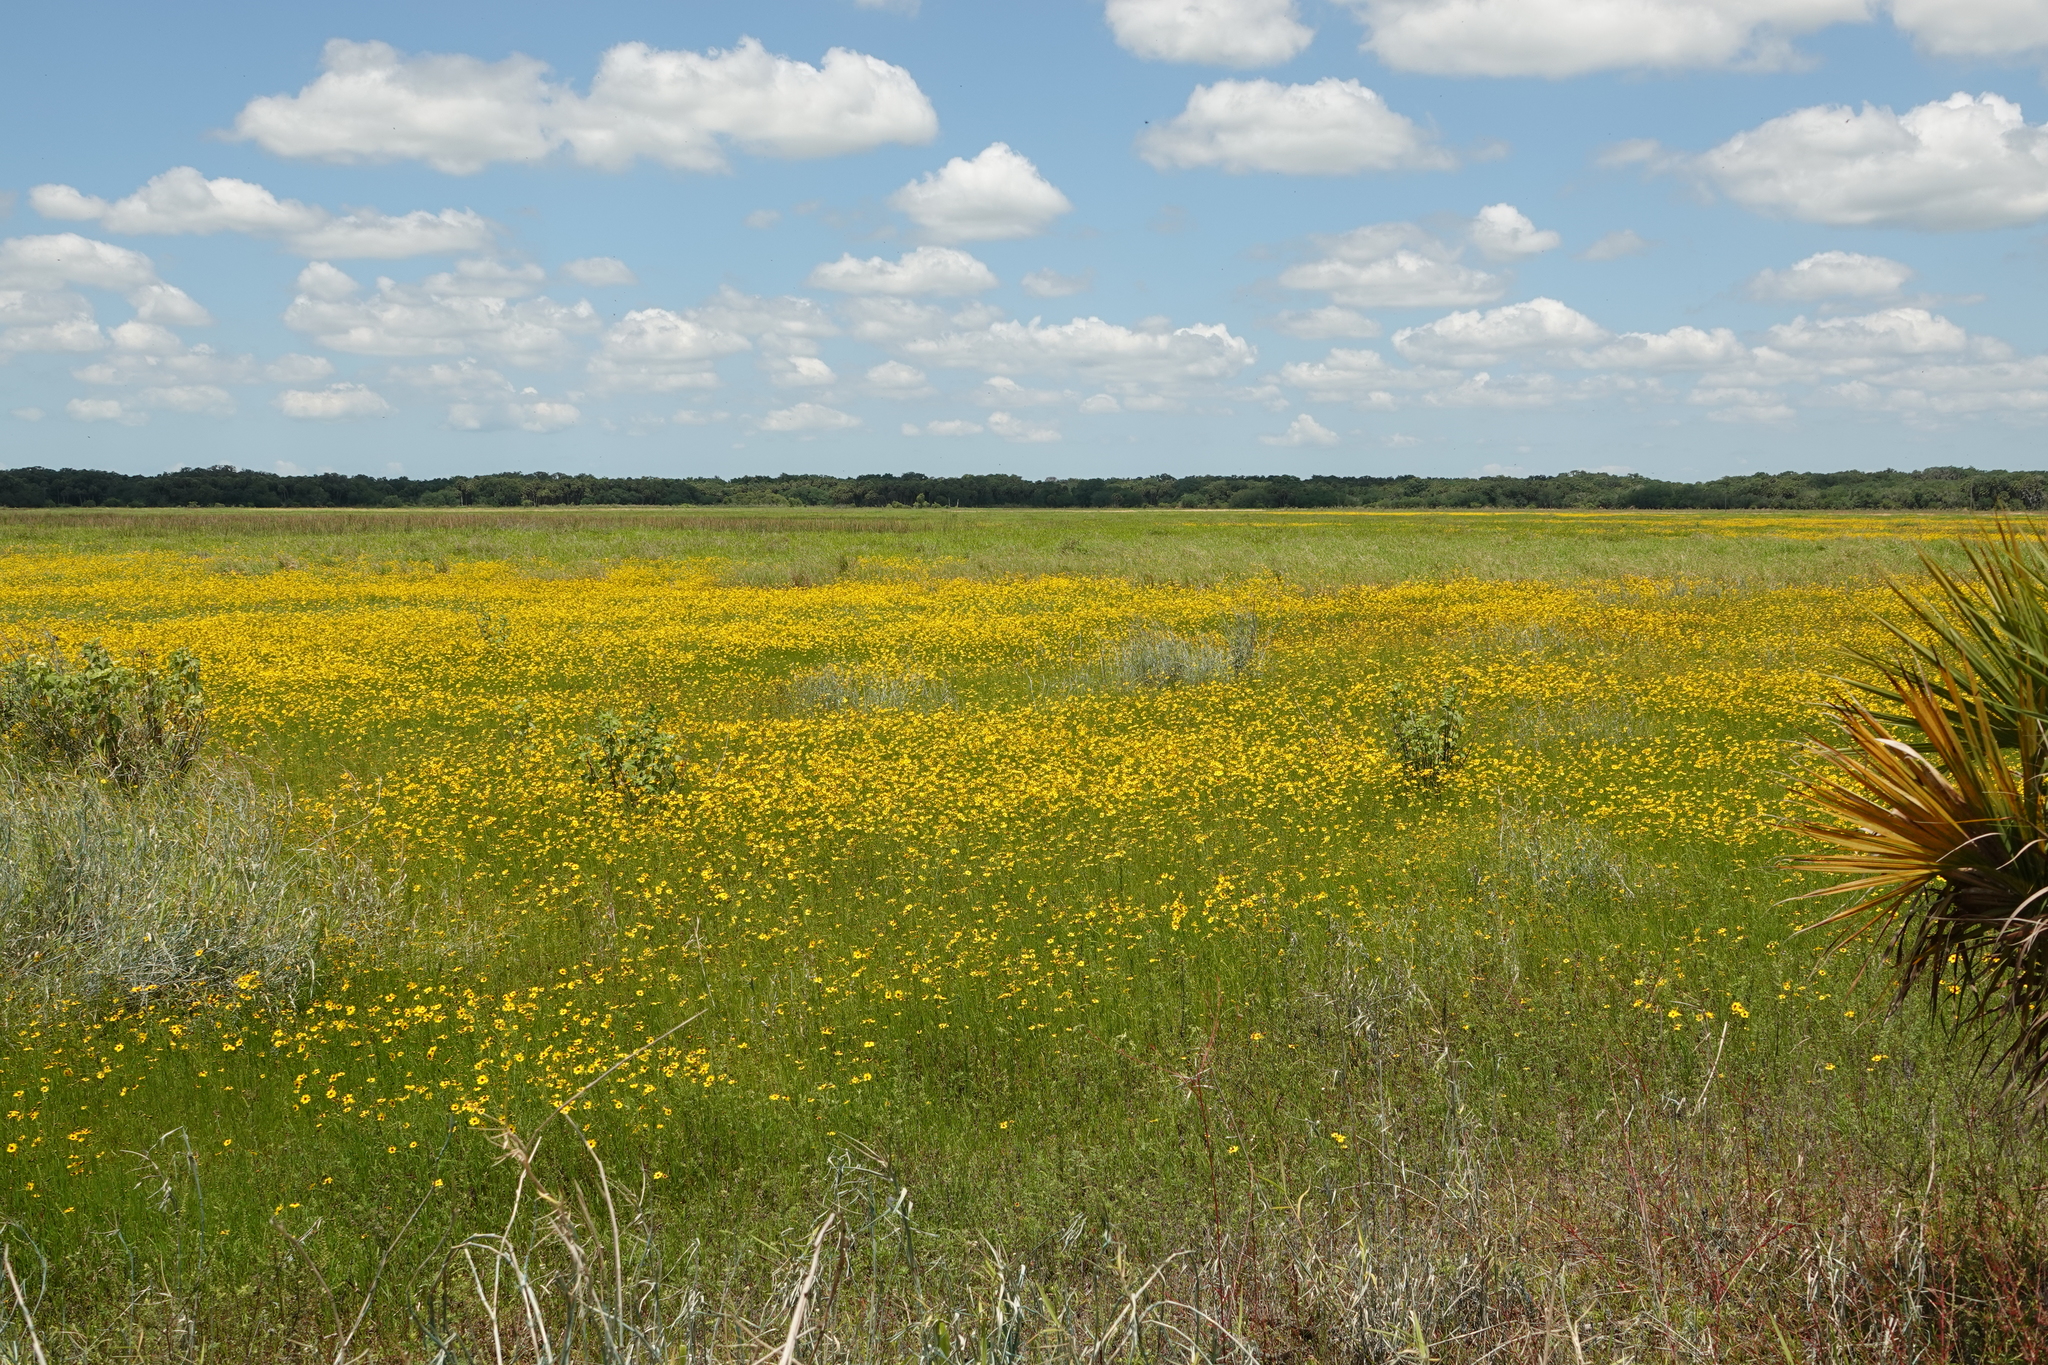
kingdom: Plantae
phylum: Tracheophyta
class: Magnoliopsida
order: Asterales
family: Asteraceae
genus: Coreopsis
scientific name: Coreopsis leavenworthii
